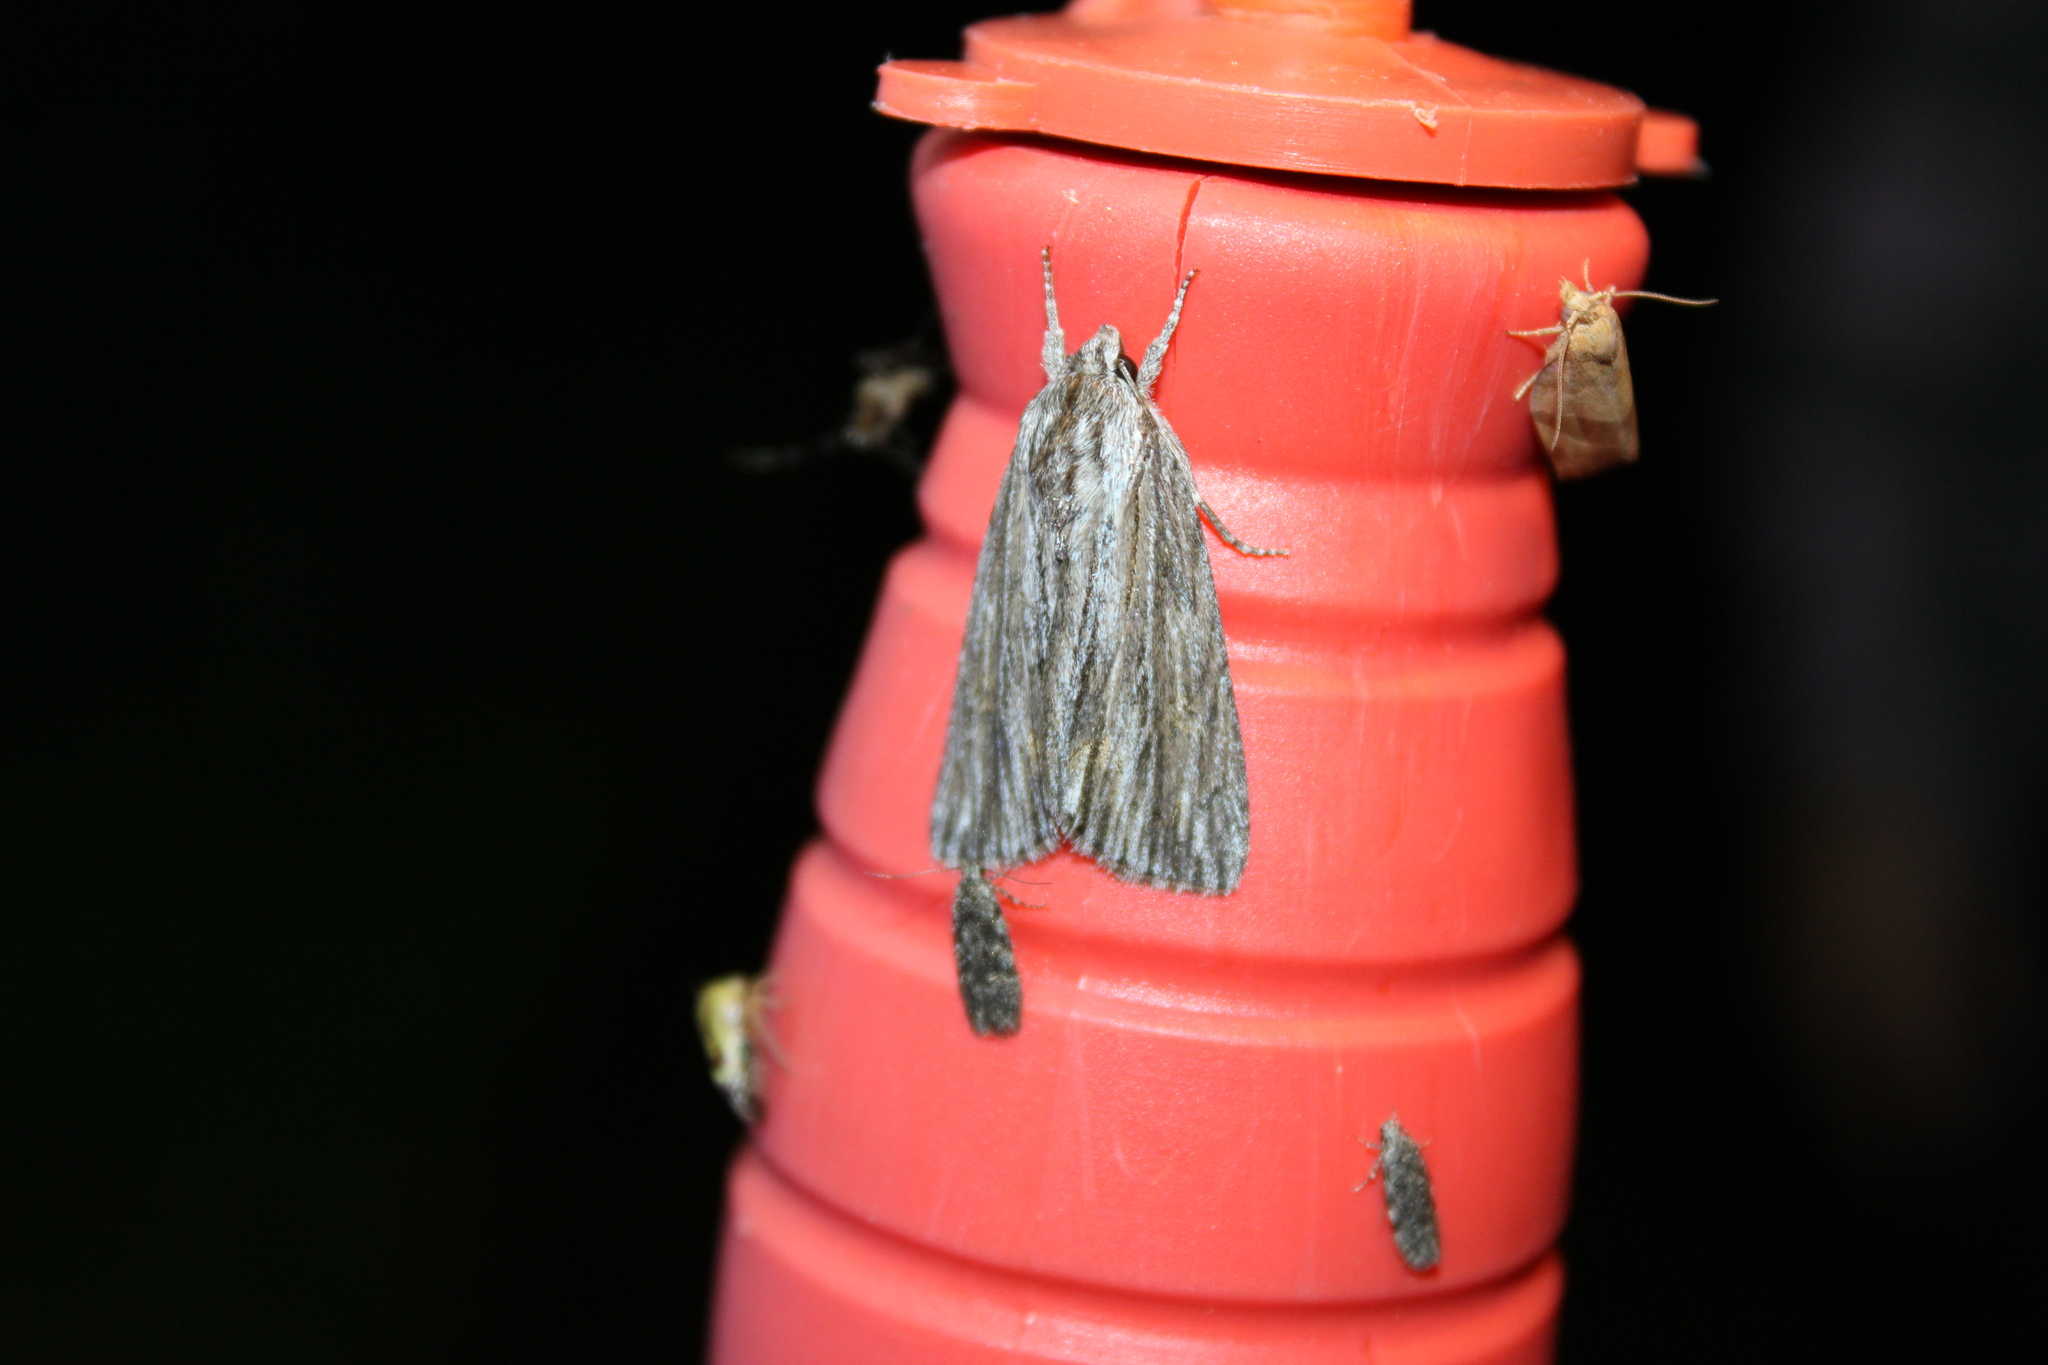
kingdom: Animalia
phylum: Arthropoda
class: Insecta
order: Lepidoptera
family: Noctuidae
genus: Acronicta
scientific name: Acronicta lithospila
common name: Streaked dagger
